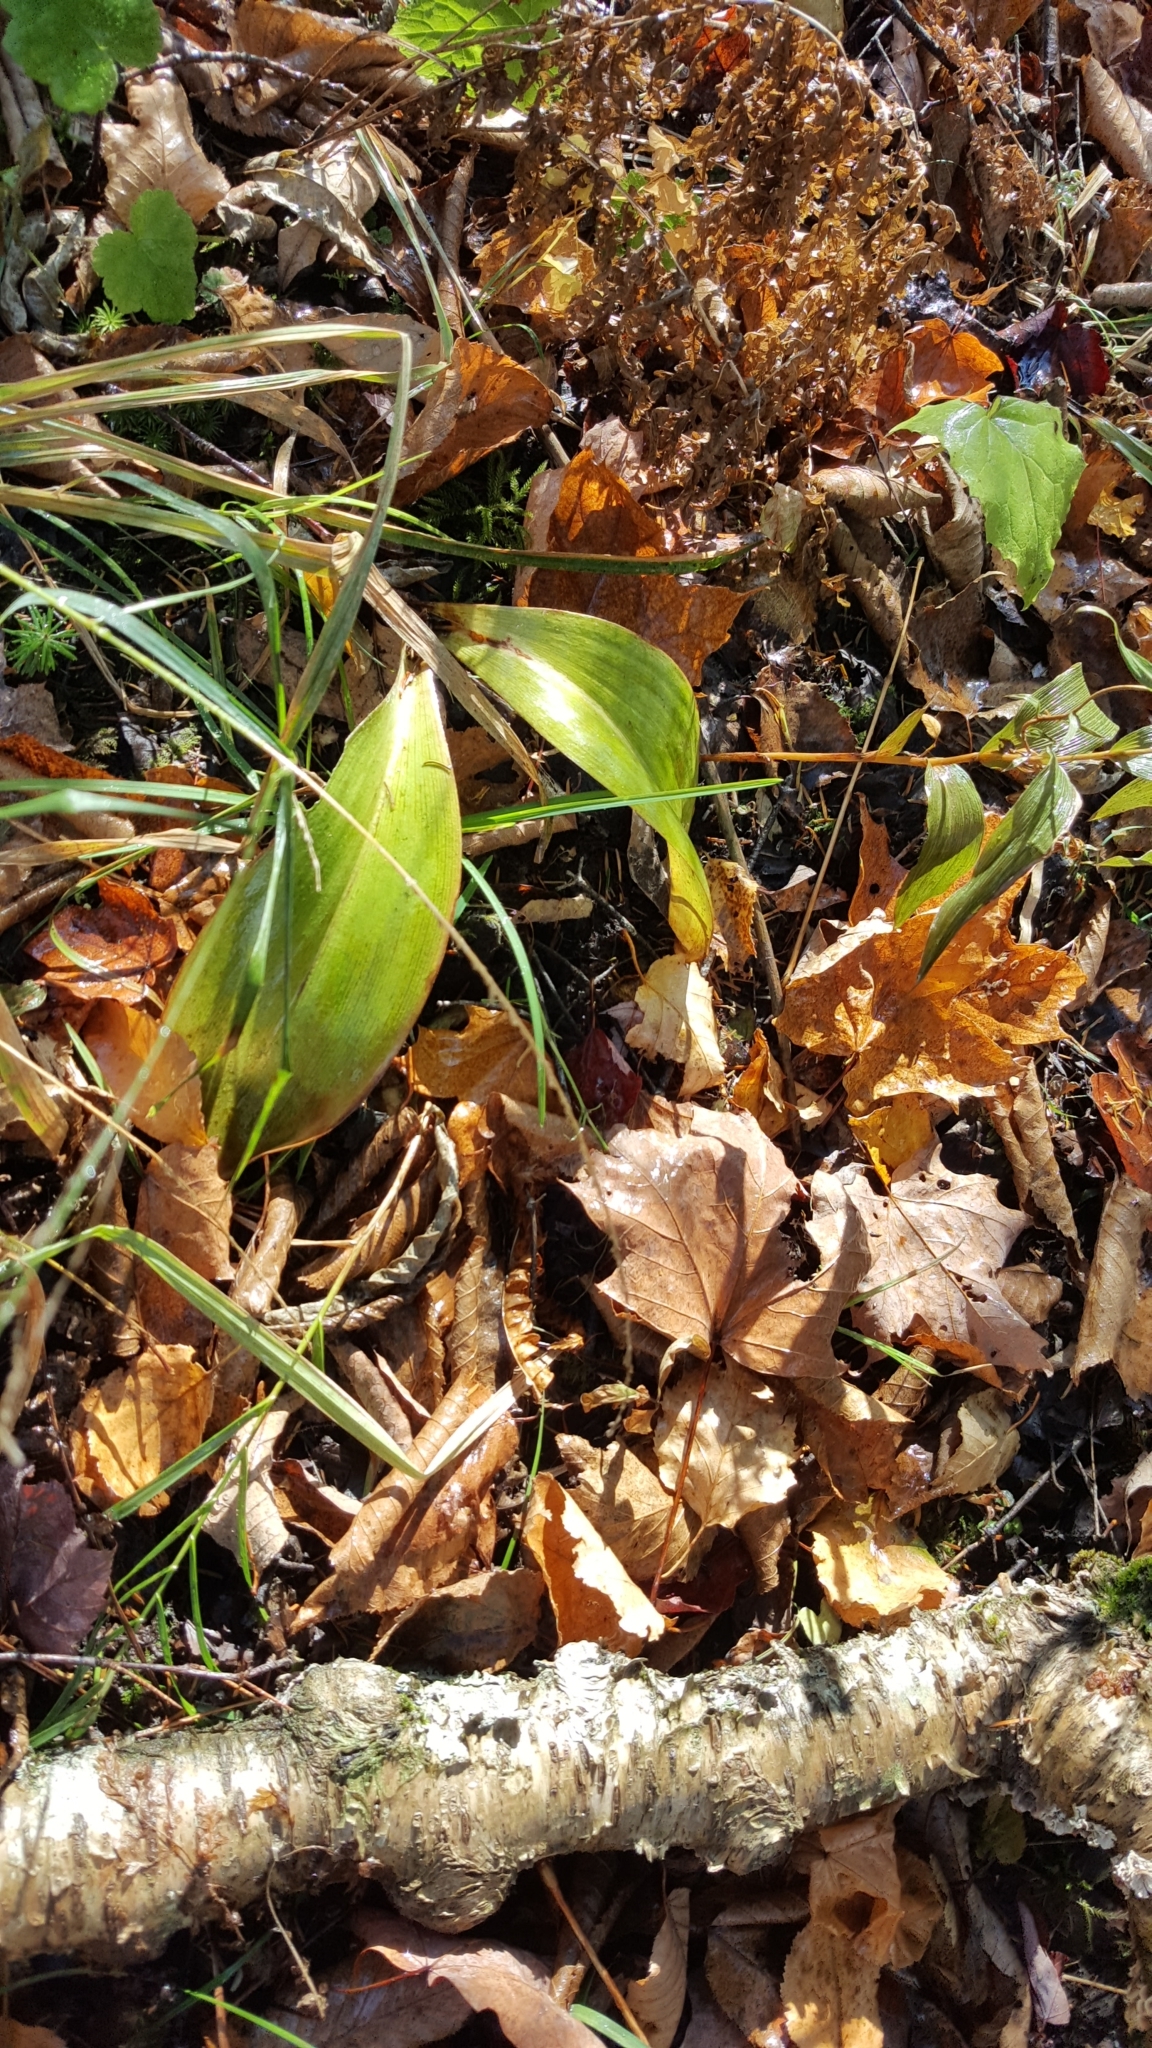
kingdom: Plantae
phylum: Tracheophyta
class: Liliopsida
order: Liliales
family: Liliaceae
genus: Clintonia
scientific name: Clintonia borealis
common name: Yellow clintonia
